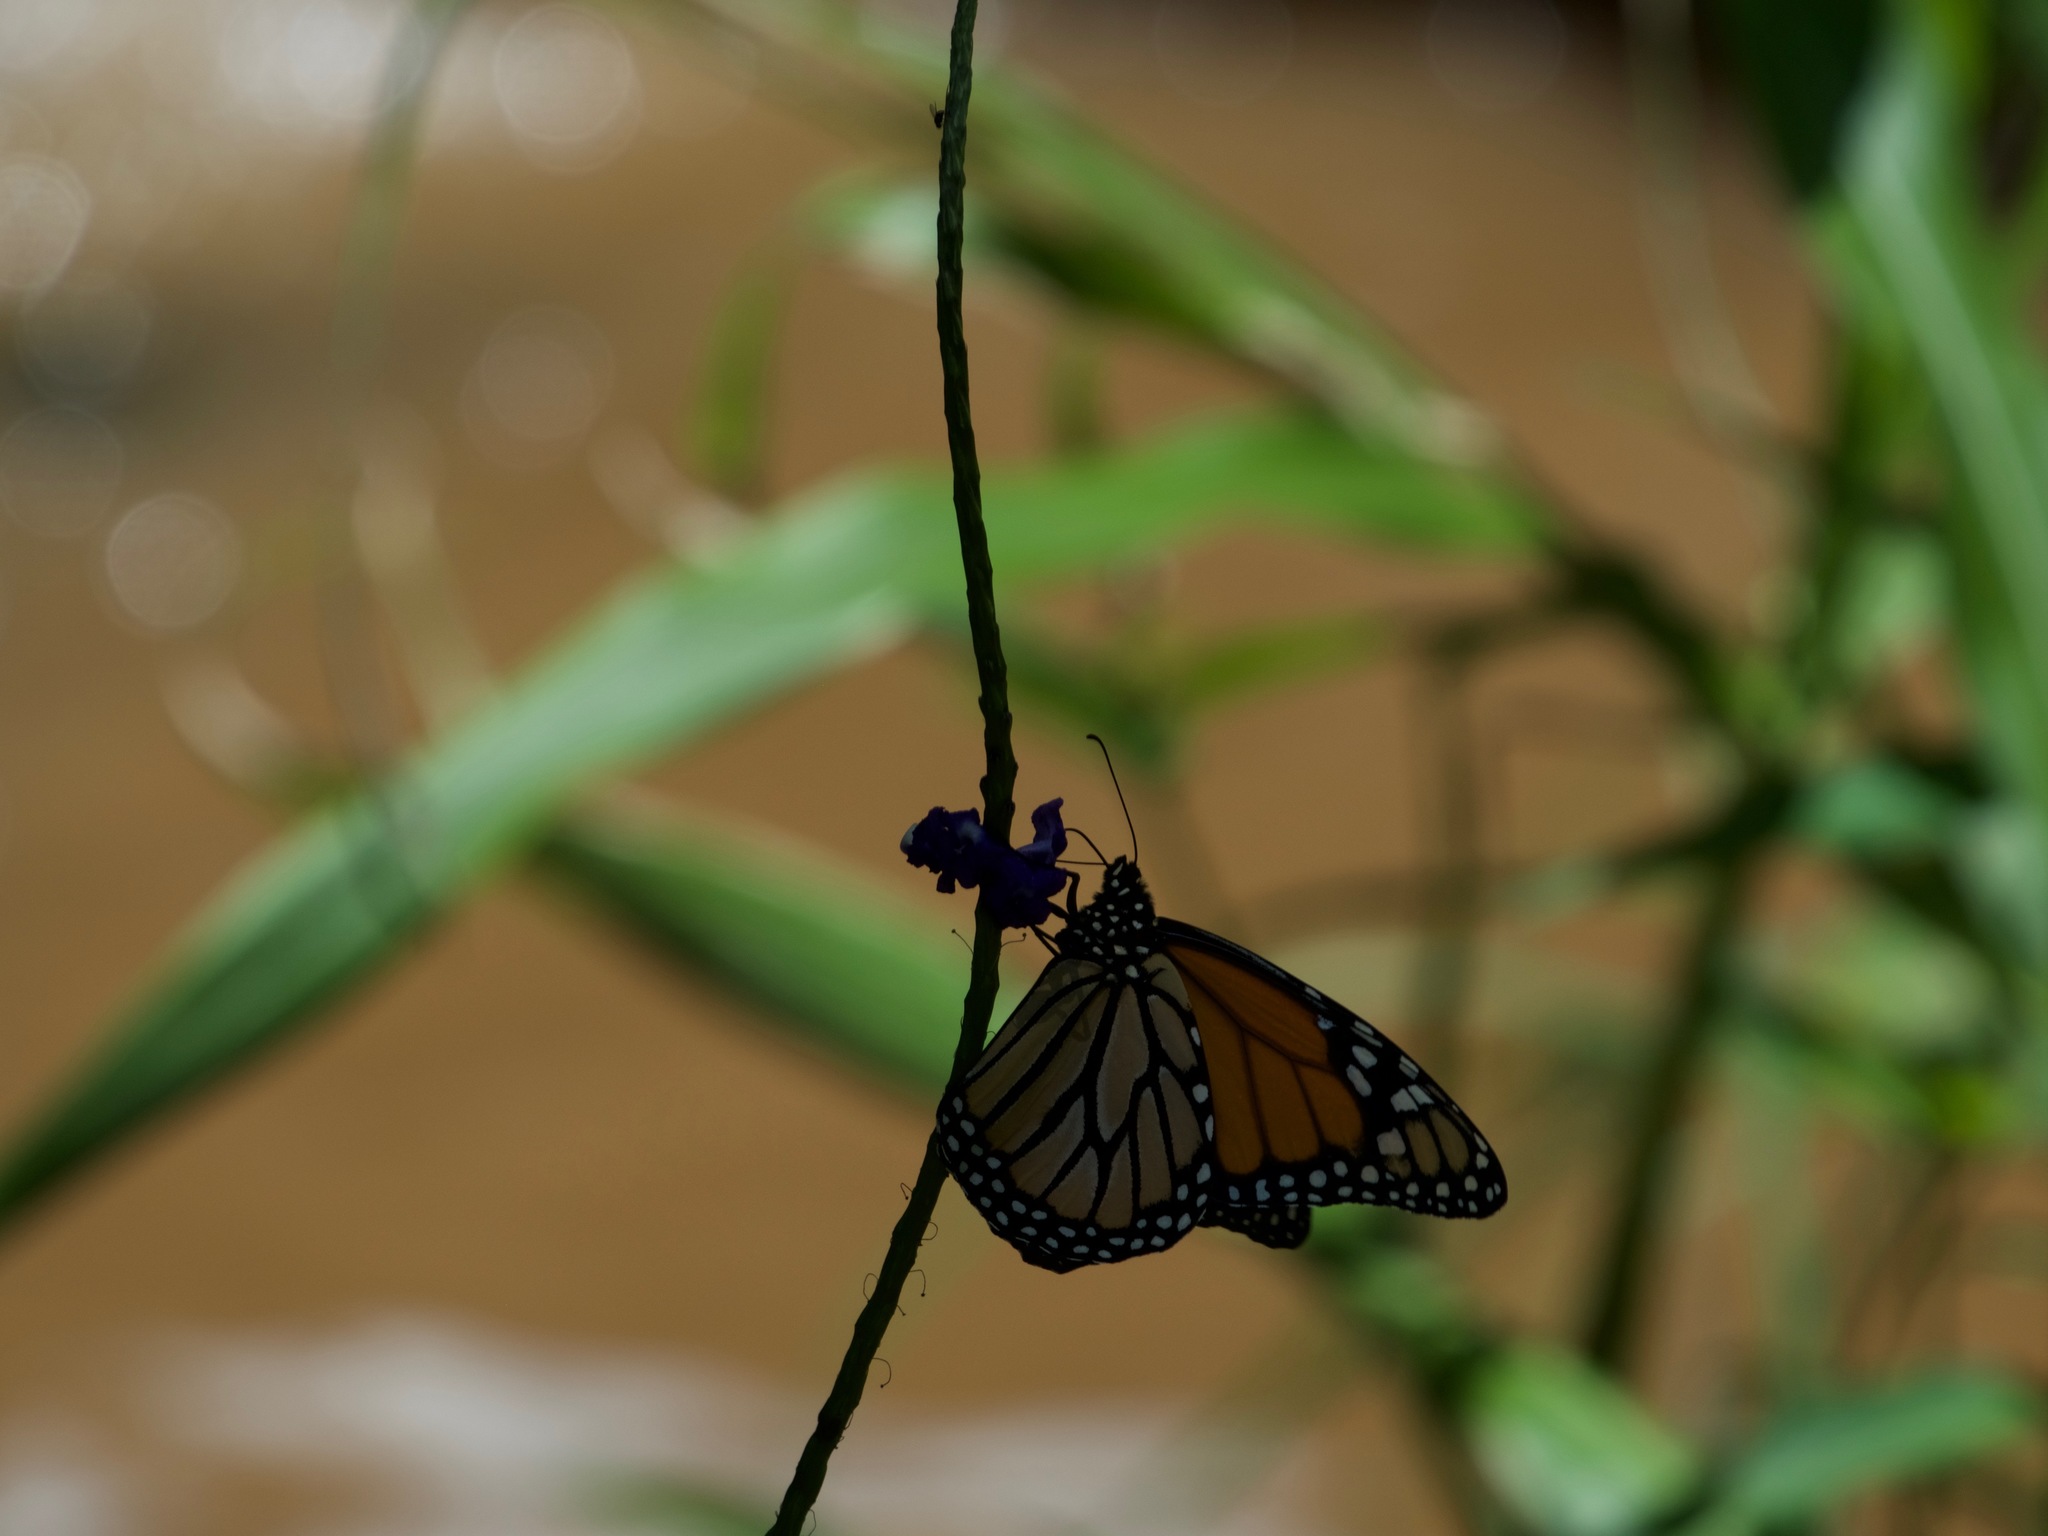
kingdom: Animalia
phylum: Arthropoda
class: Insecta
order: Lepidoptera
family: Nymphalidae
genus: Danaus
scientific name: Danaus plexippus
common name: Monarch
